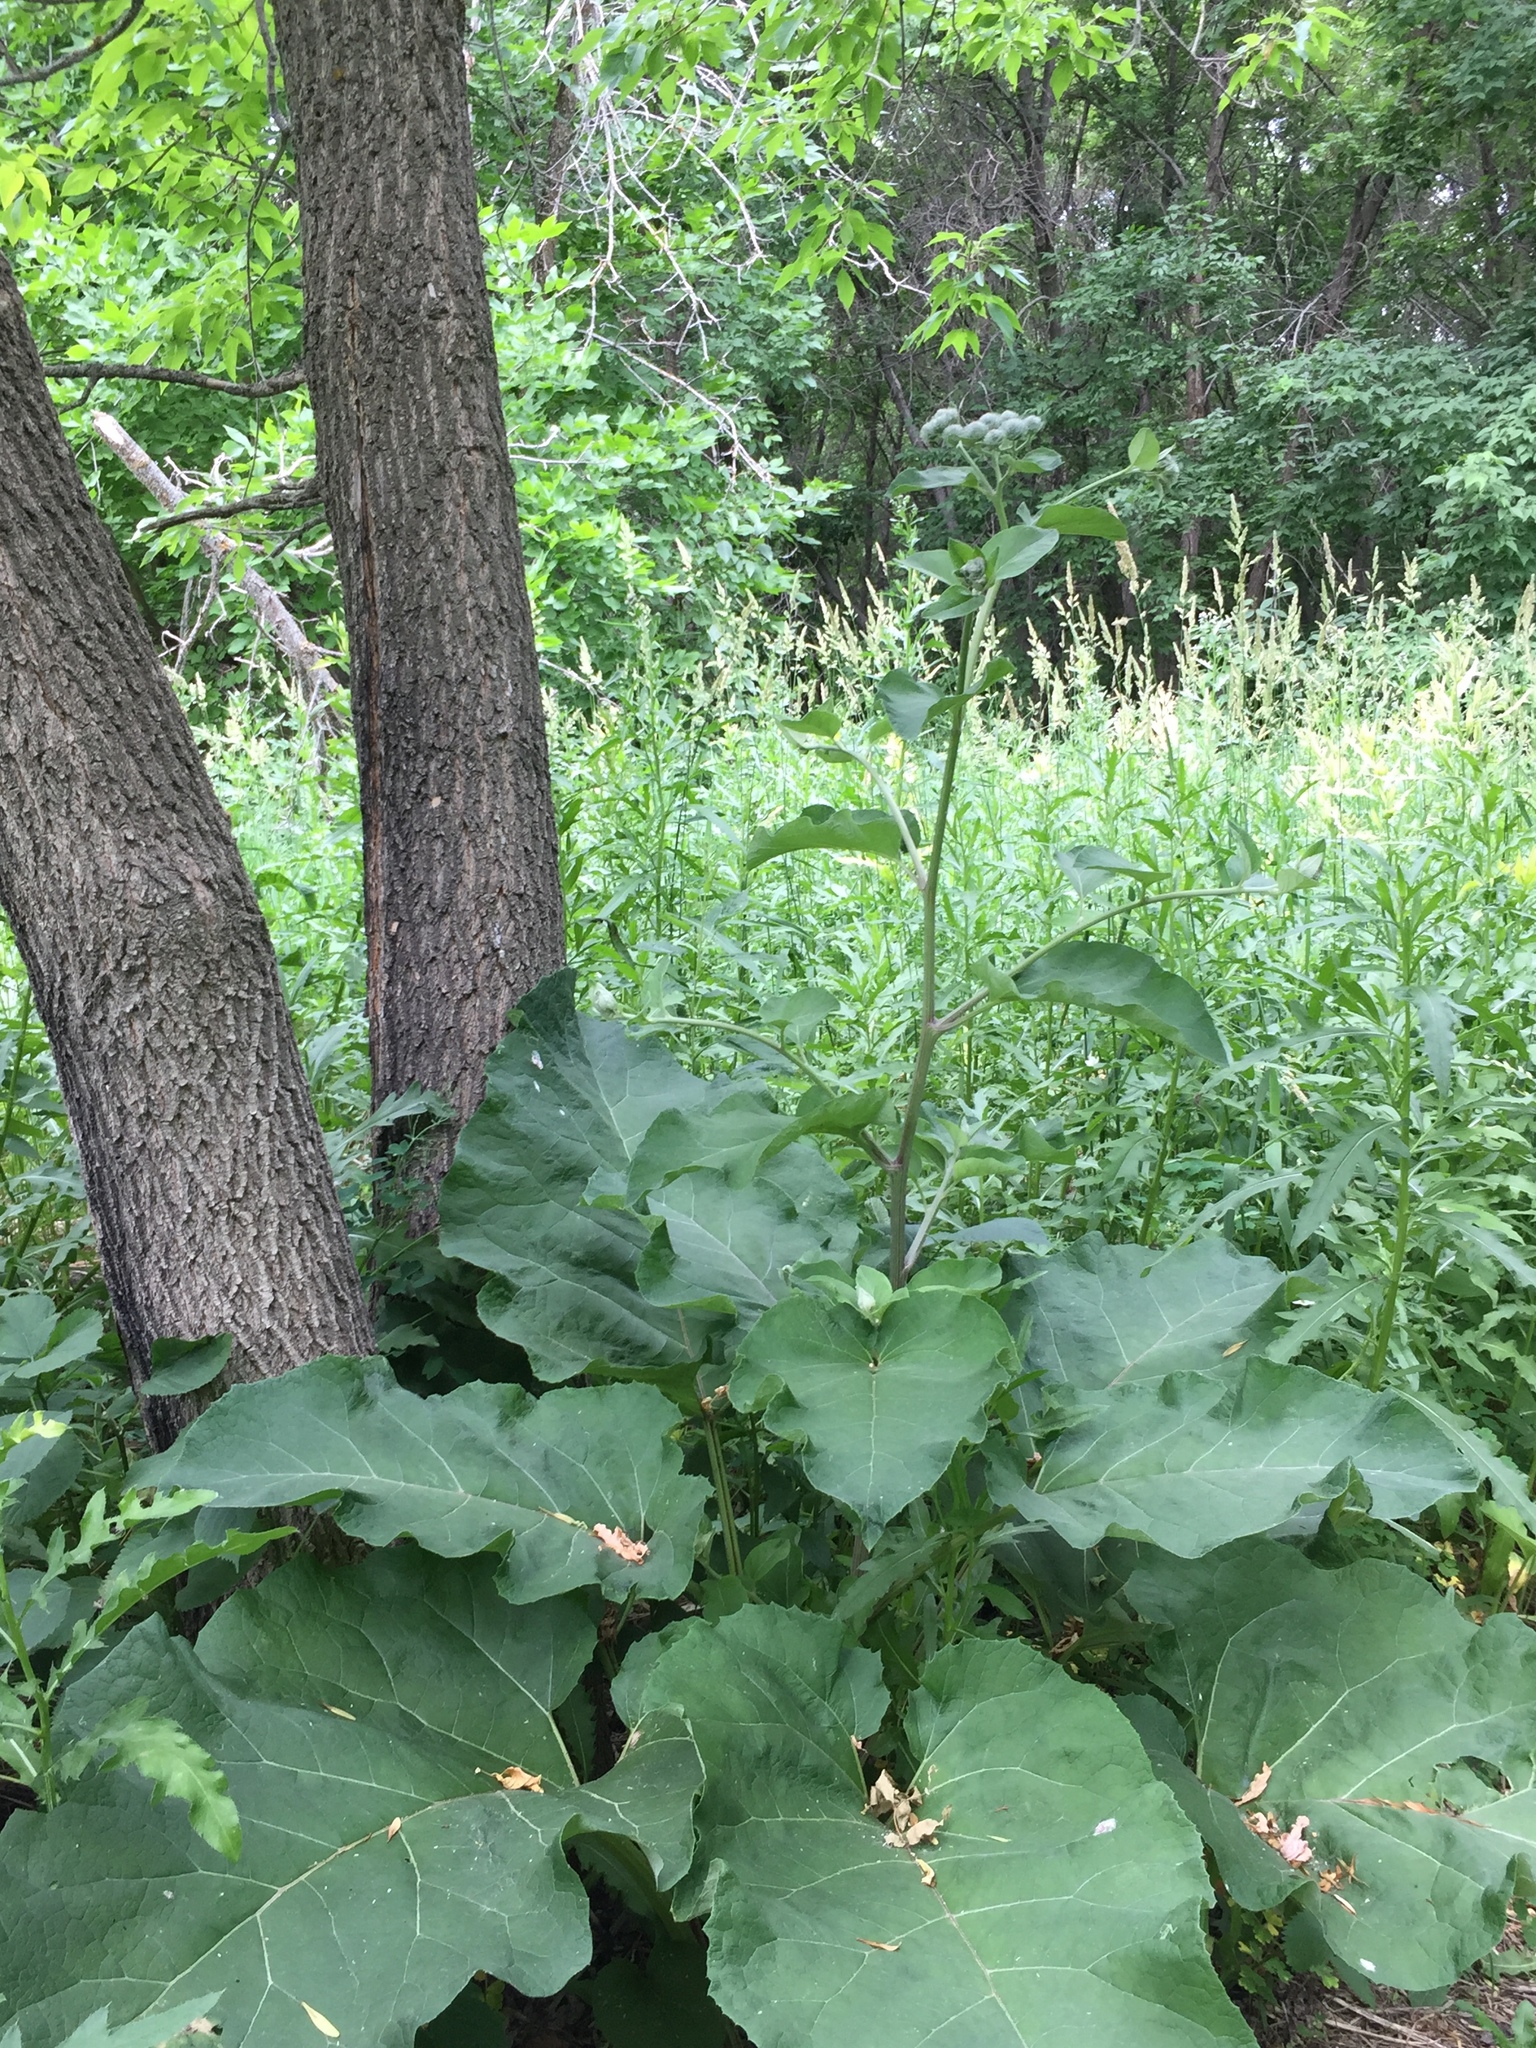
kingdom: Plantae
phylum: Tracheophyta
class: Magnoliopsida
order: Asterales
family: Asteraceae
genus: Arctium
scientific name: Arctium tomentosum
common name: Woolly burdock
